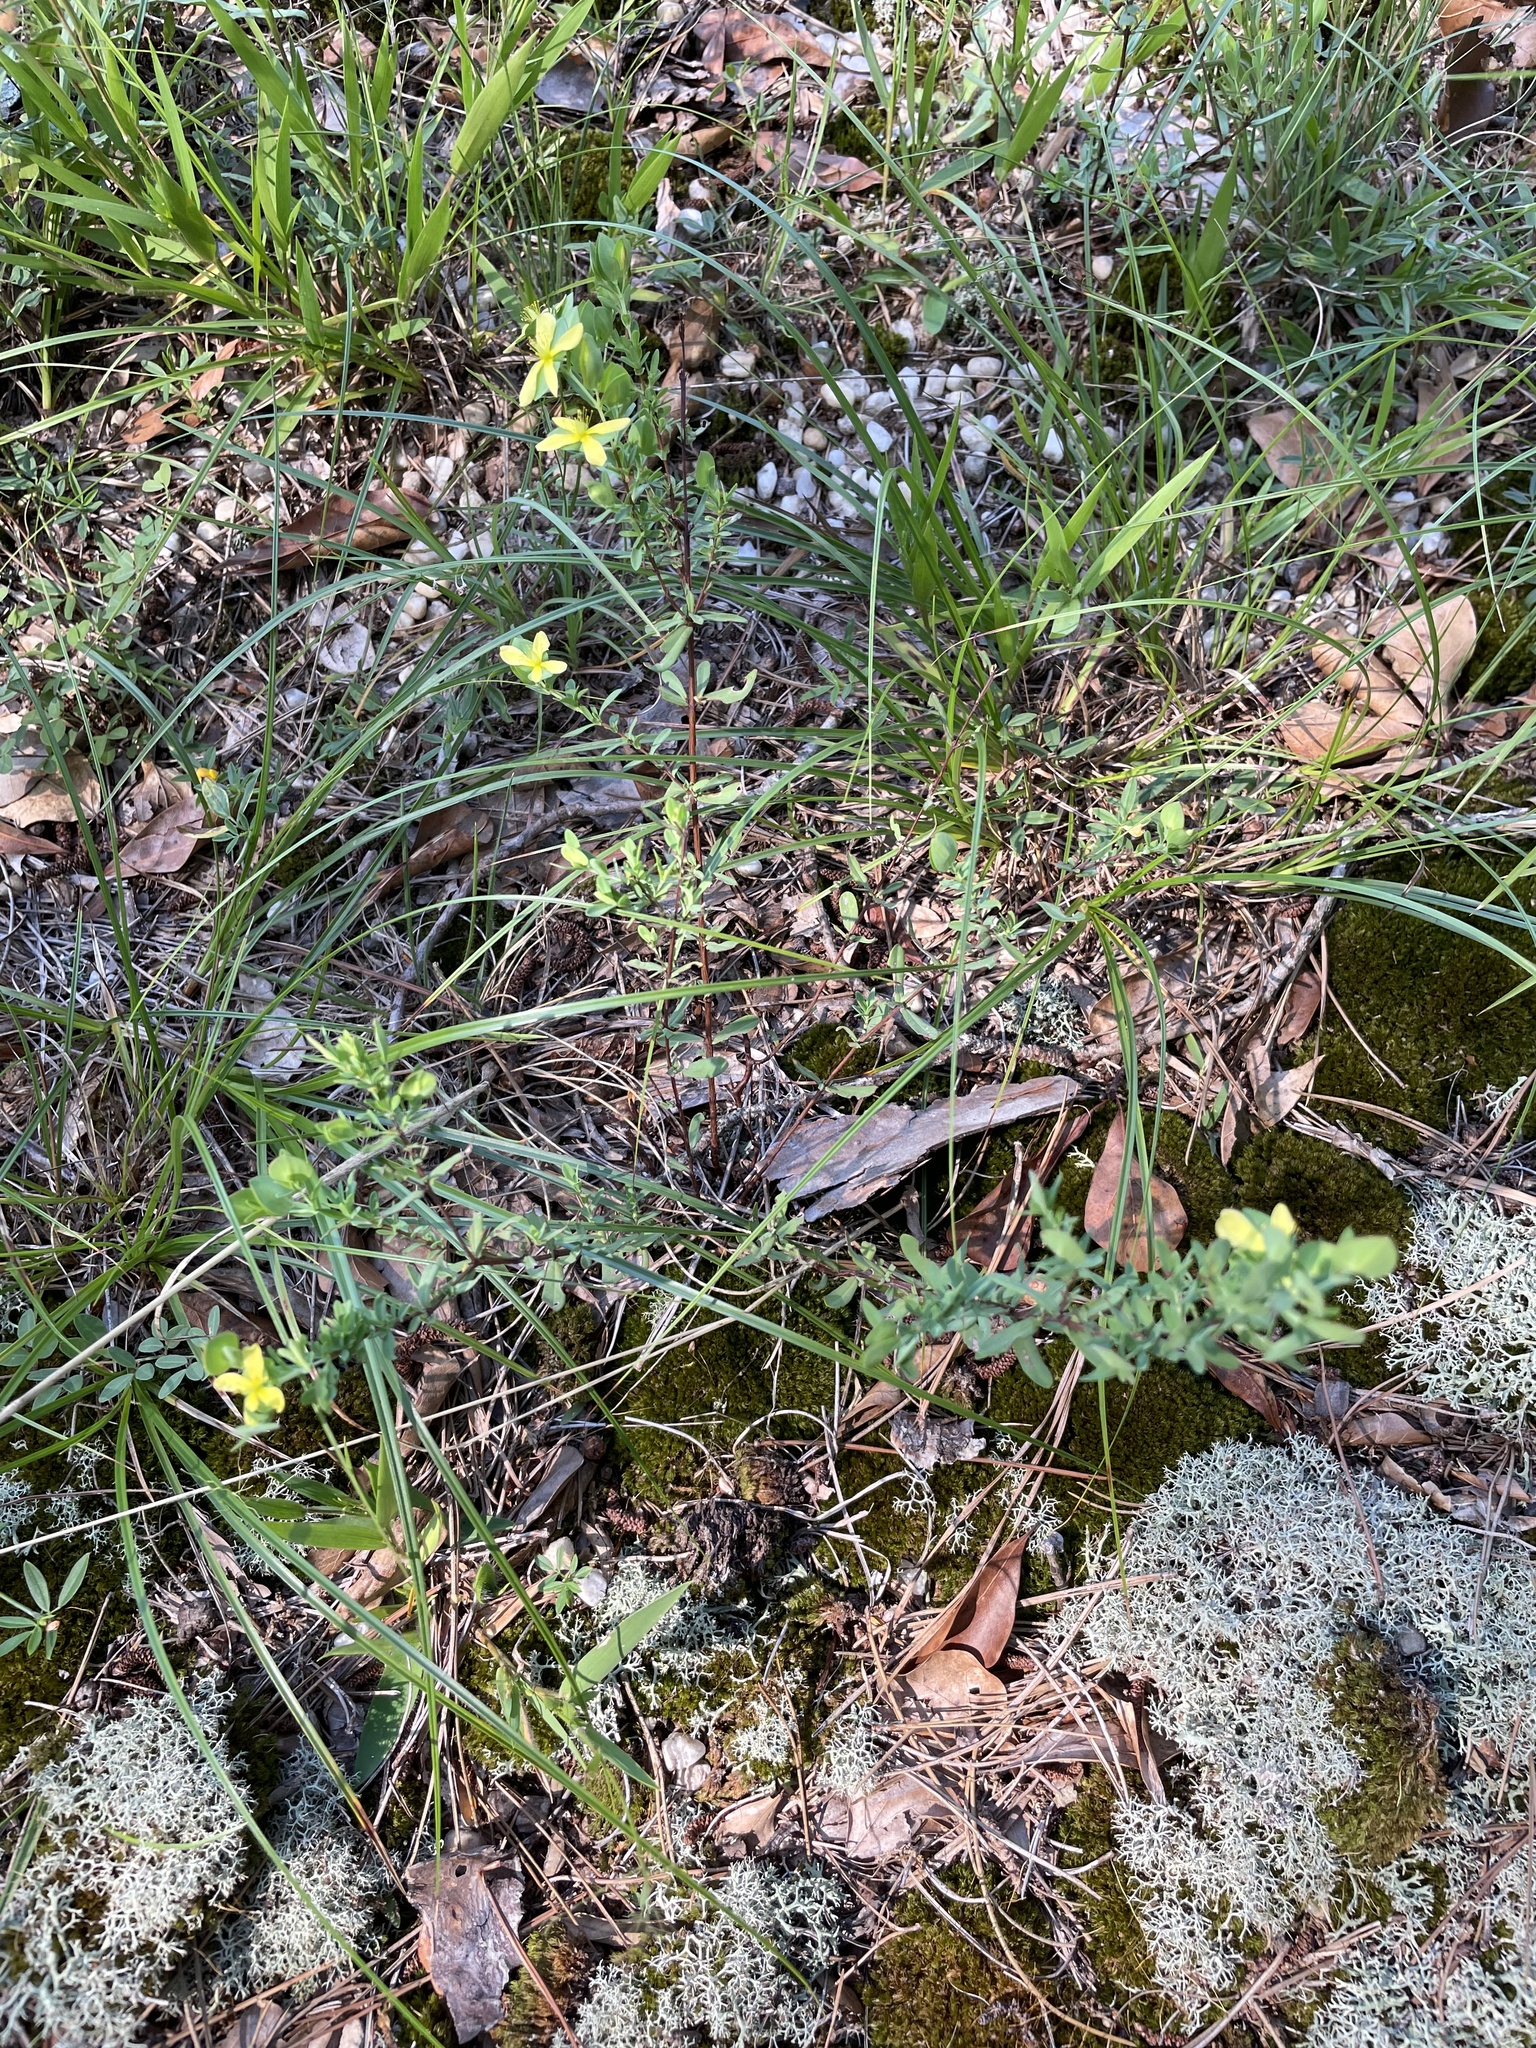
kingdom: Plantae
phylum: Tracheophyta
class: Magnoliopsida
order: Malpighiales
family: Hypericaceae
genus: Hypericum
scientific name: Hypericum hypericoides
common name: St. andrew's cross
